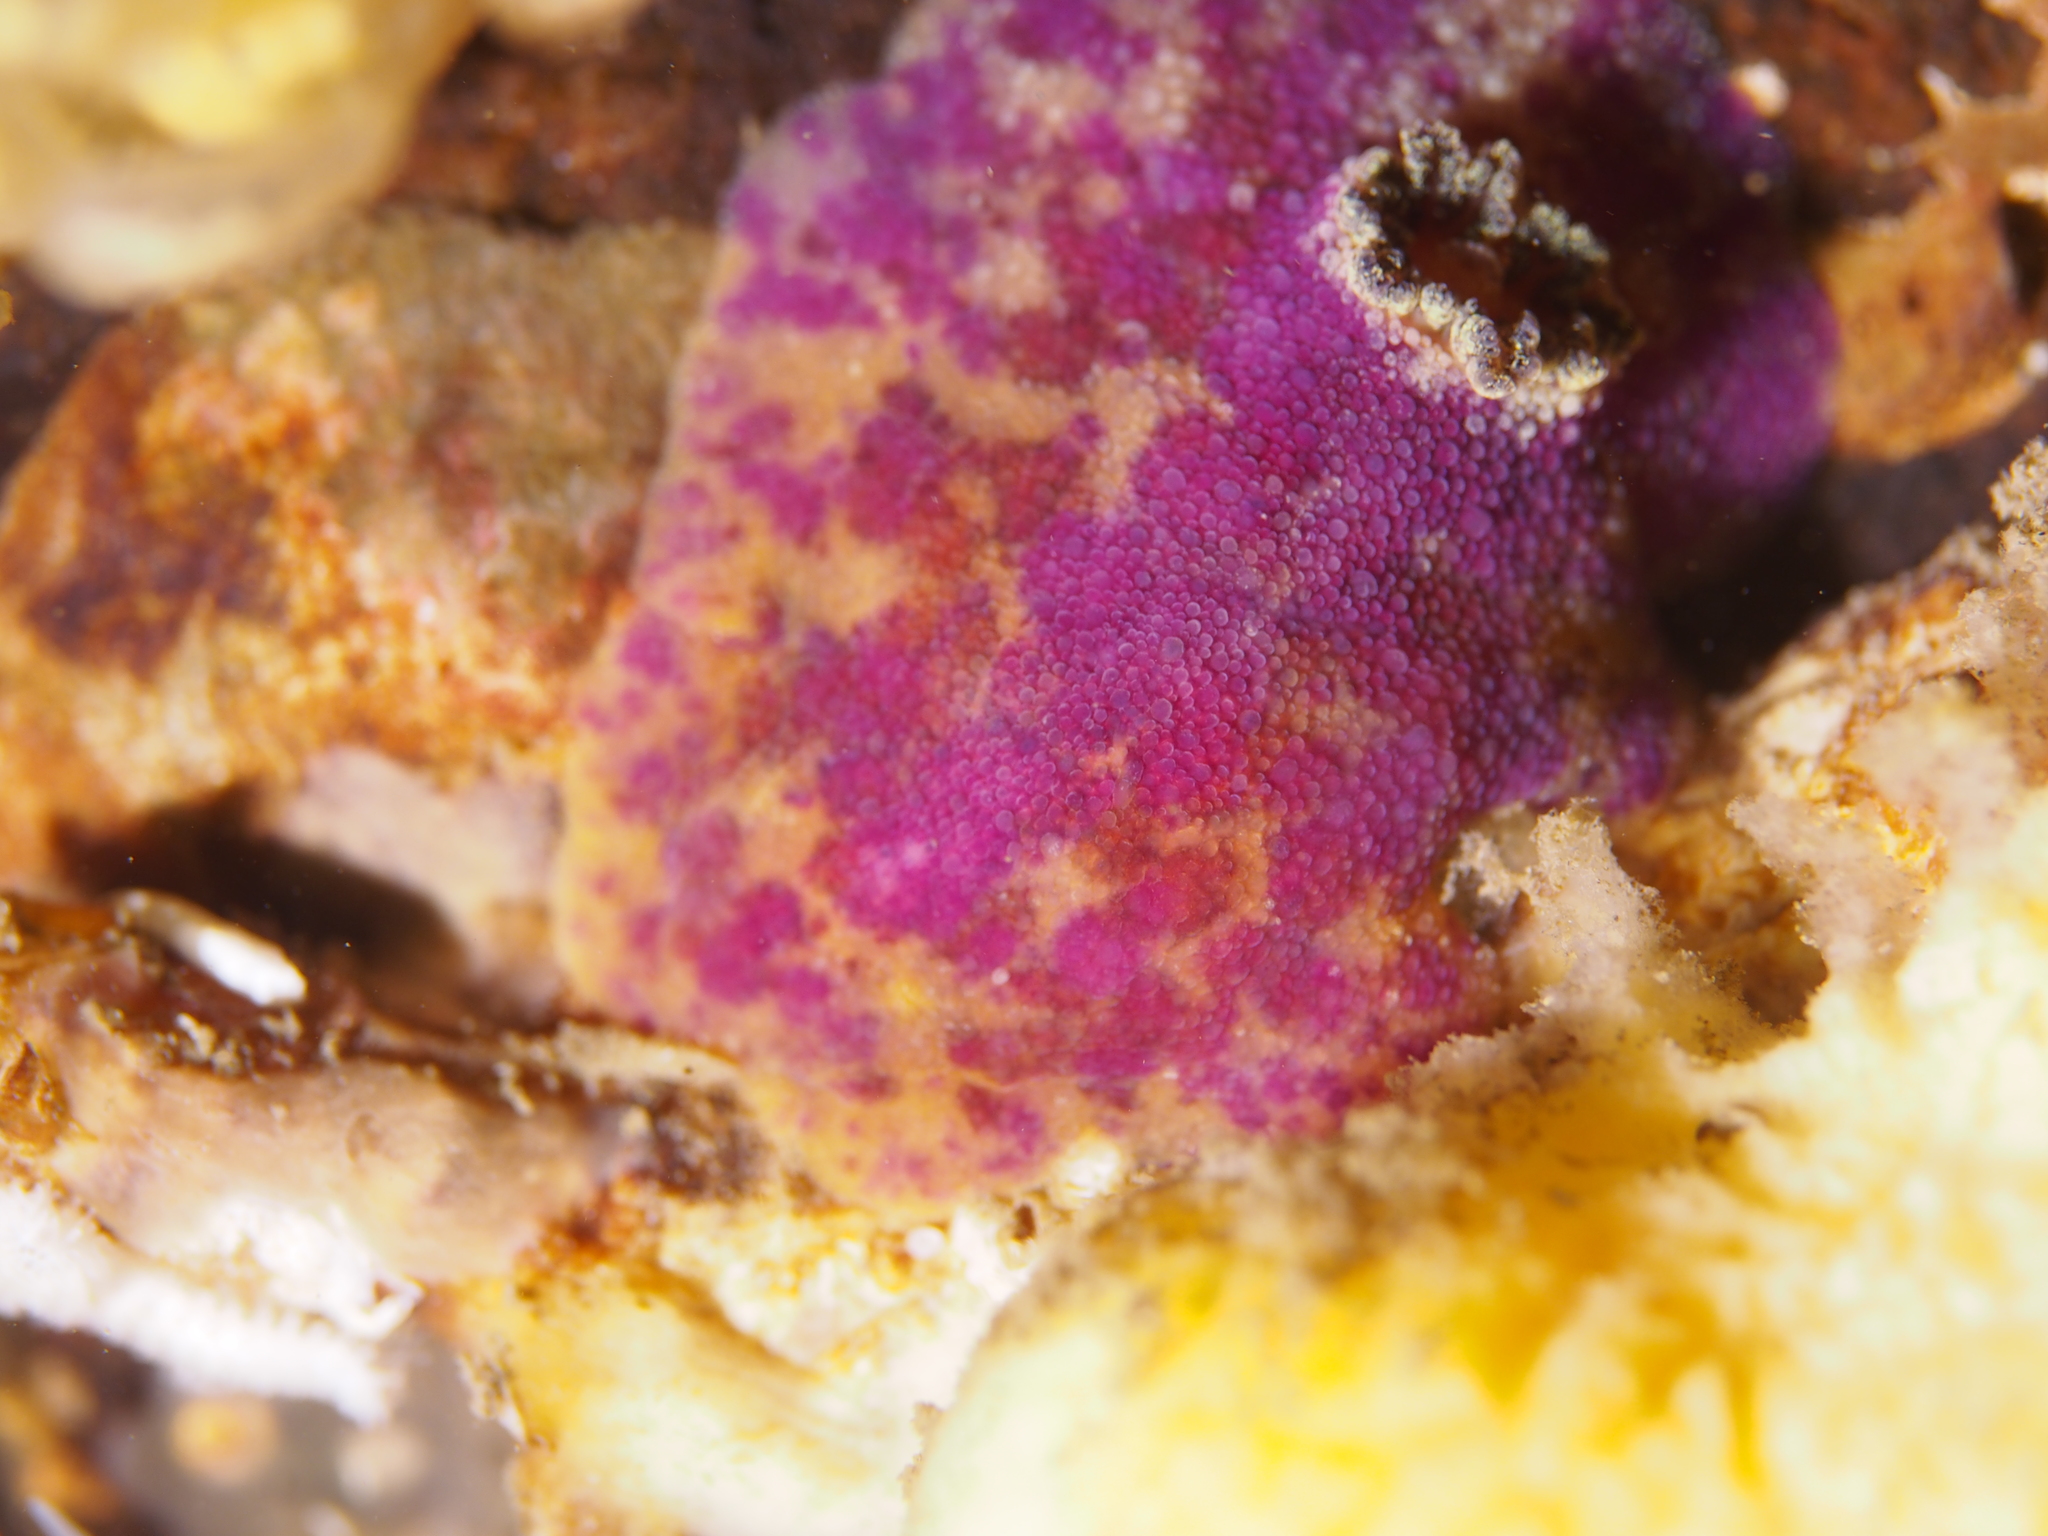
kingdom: Animalia
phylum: Mollusca
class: Gastropoda
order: Nudibranchia
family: Dorididae
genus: Doris
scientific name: Doris pseudoargus
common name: Sea lemon
